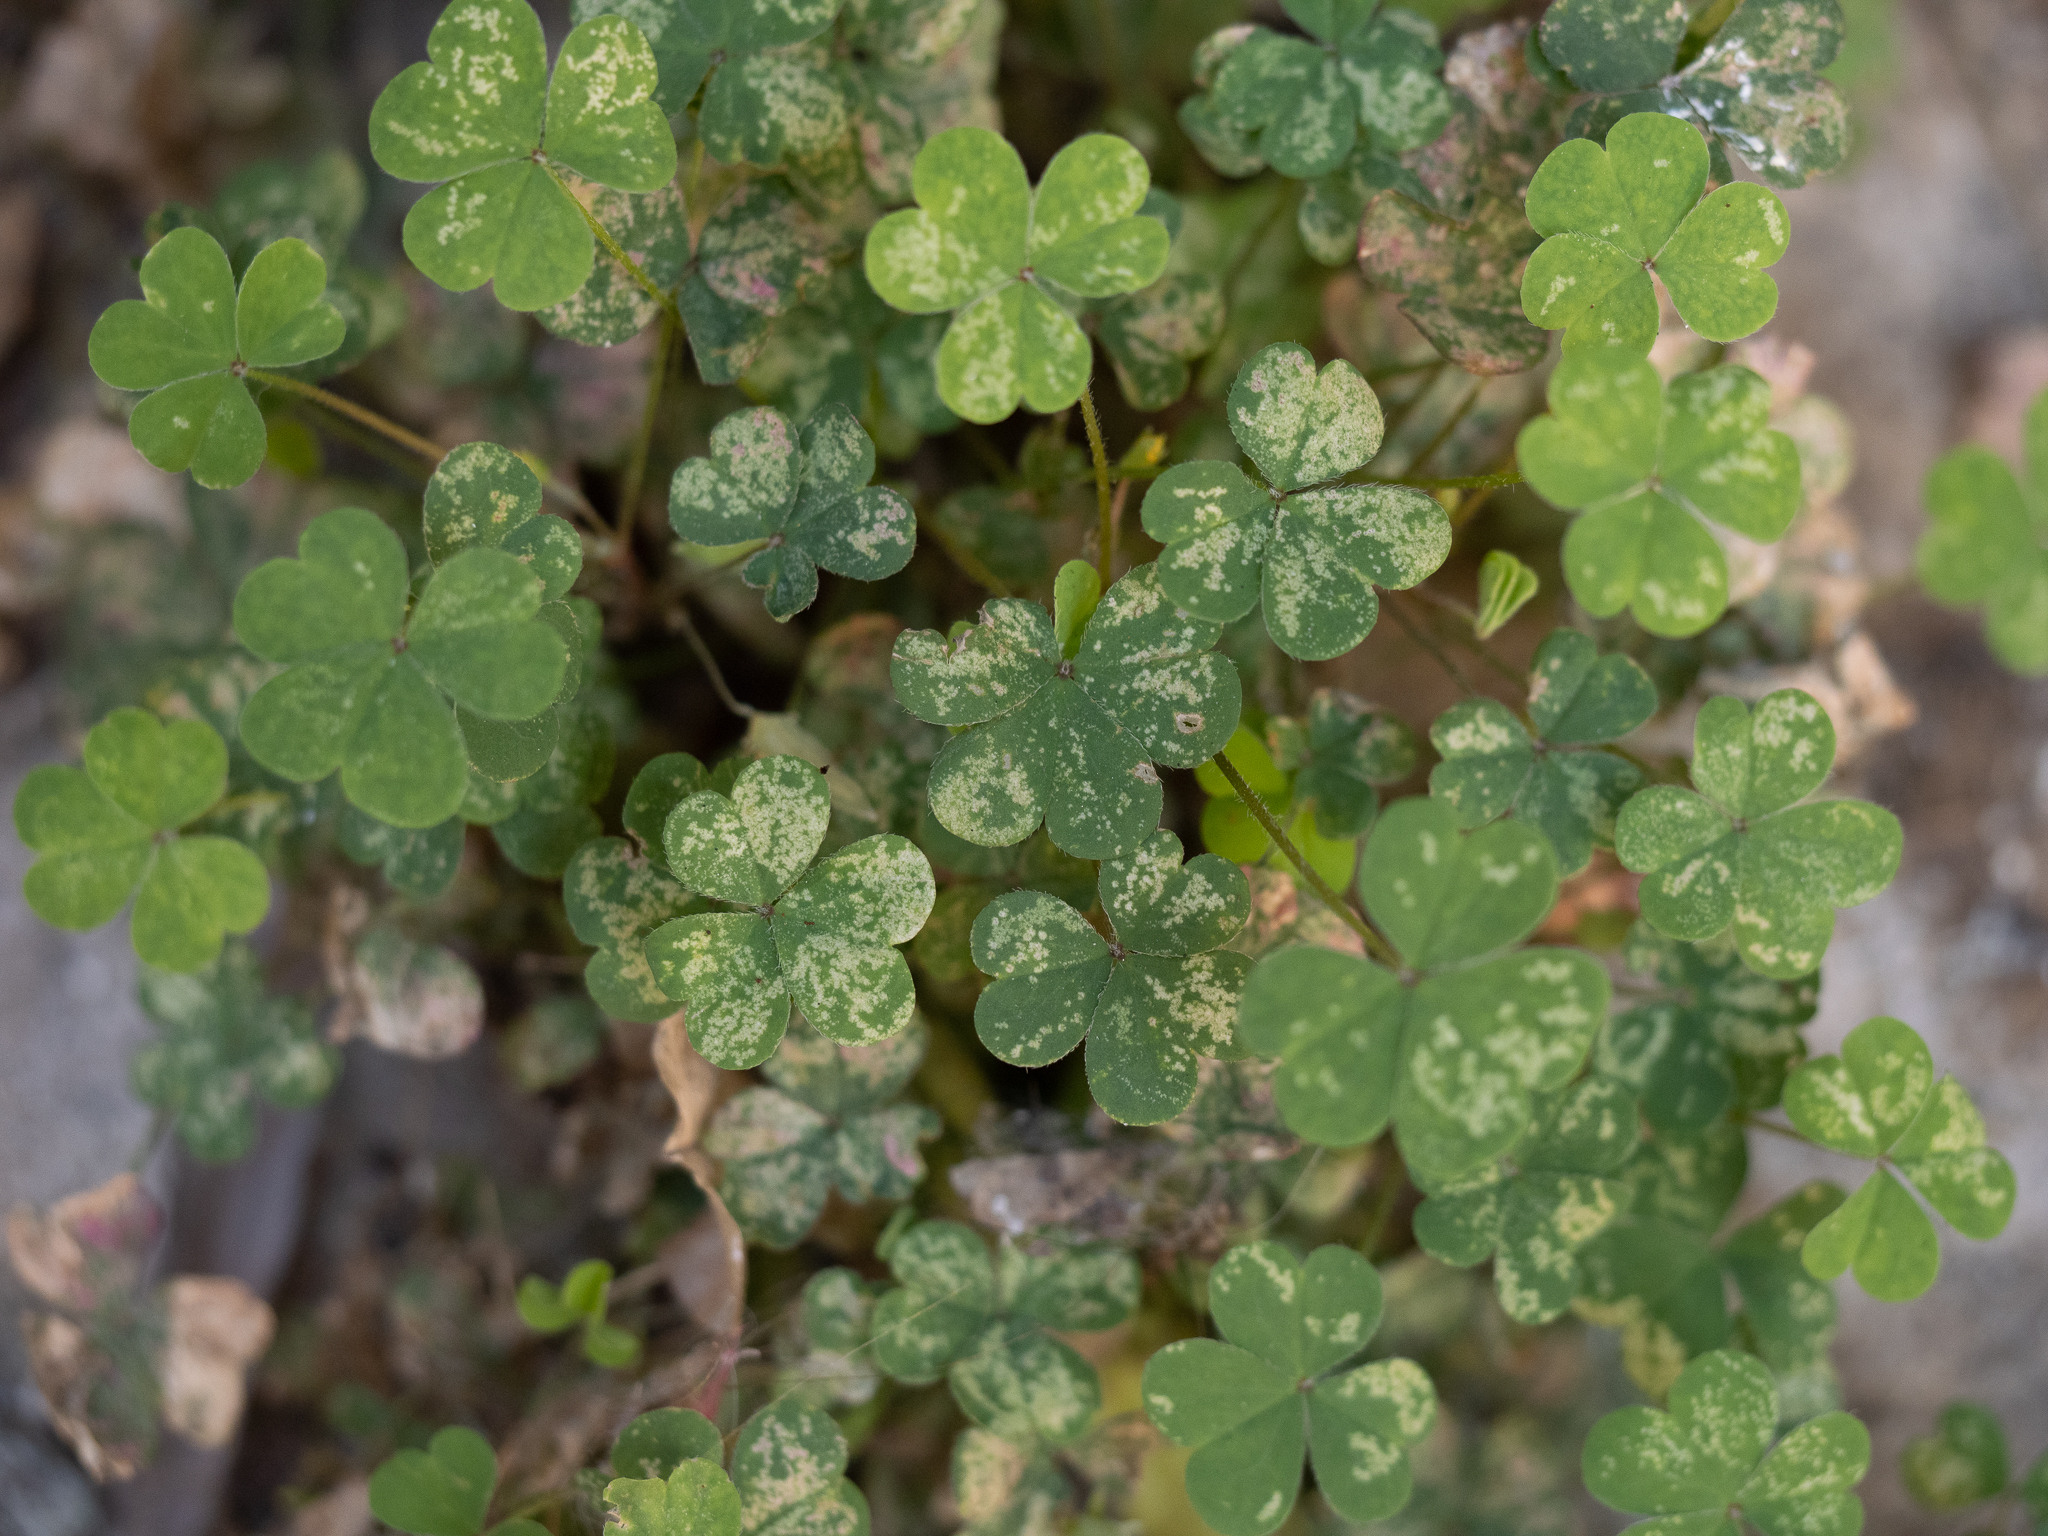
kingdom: Plantae
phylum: Tracheophyta
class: Magnoliopsida
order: Oxalidales
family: Oxalidaceae
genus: Oxalis
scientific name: Oxalis corniculata
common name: Procumbent yellow-sorrel
